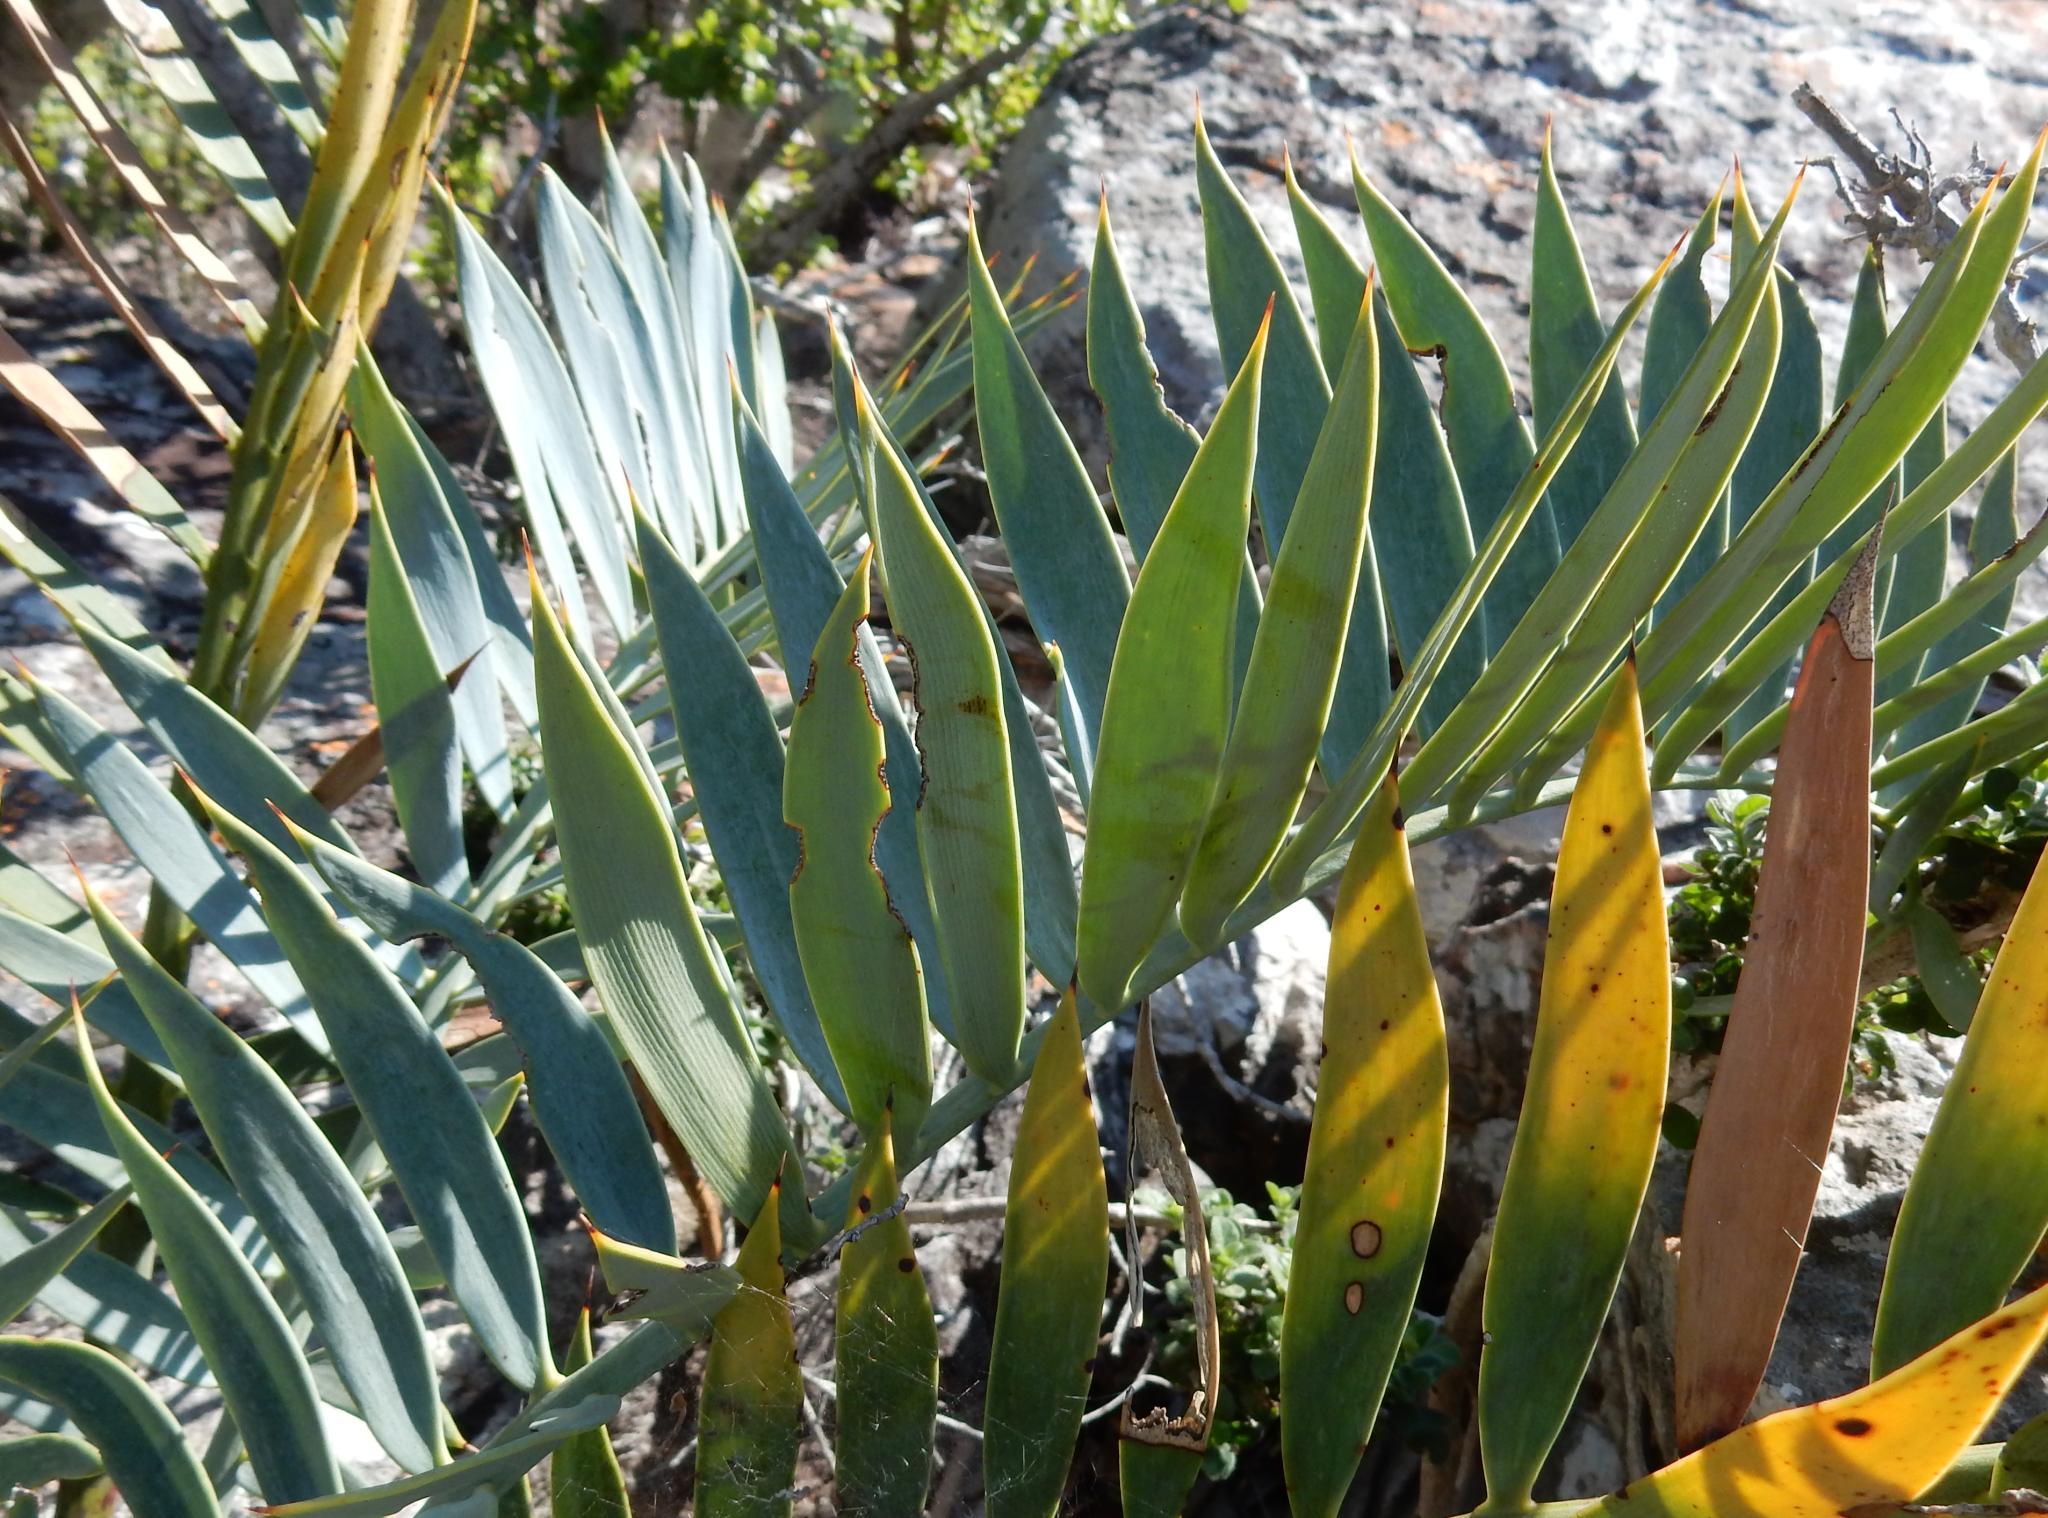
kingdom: Plantae
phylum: Tracheophyta
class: Cycadopsida
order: Cycadales
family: Zamiaceae
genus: Encephalartos
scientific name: Encephalartos trispinosus
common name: Bushman's river cycad
